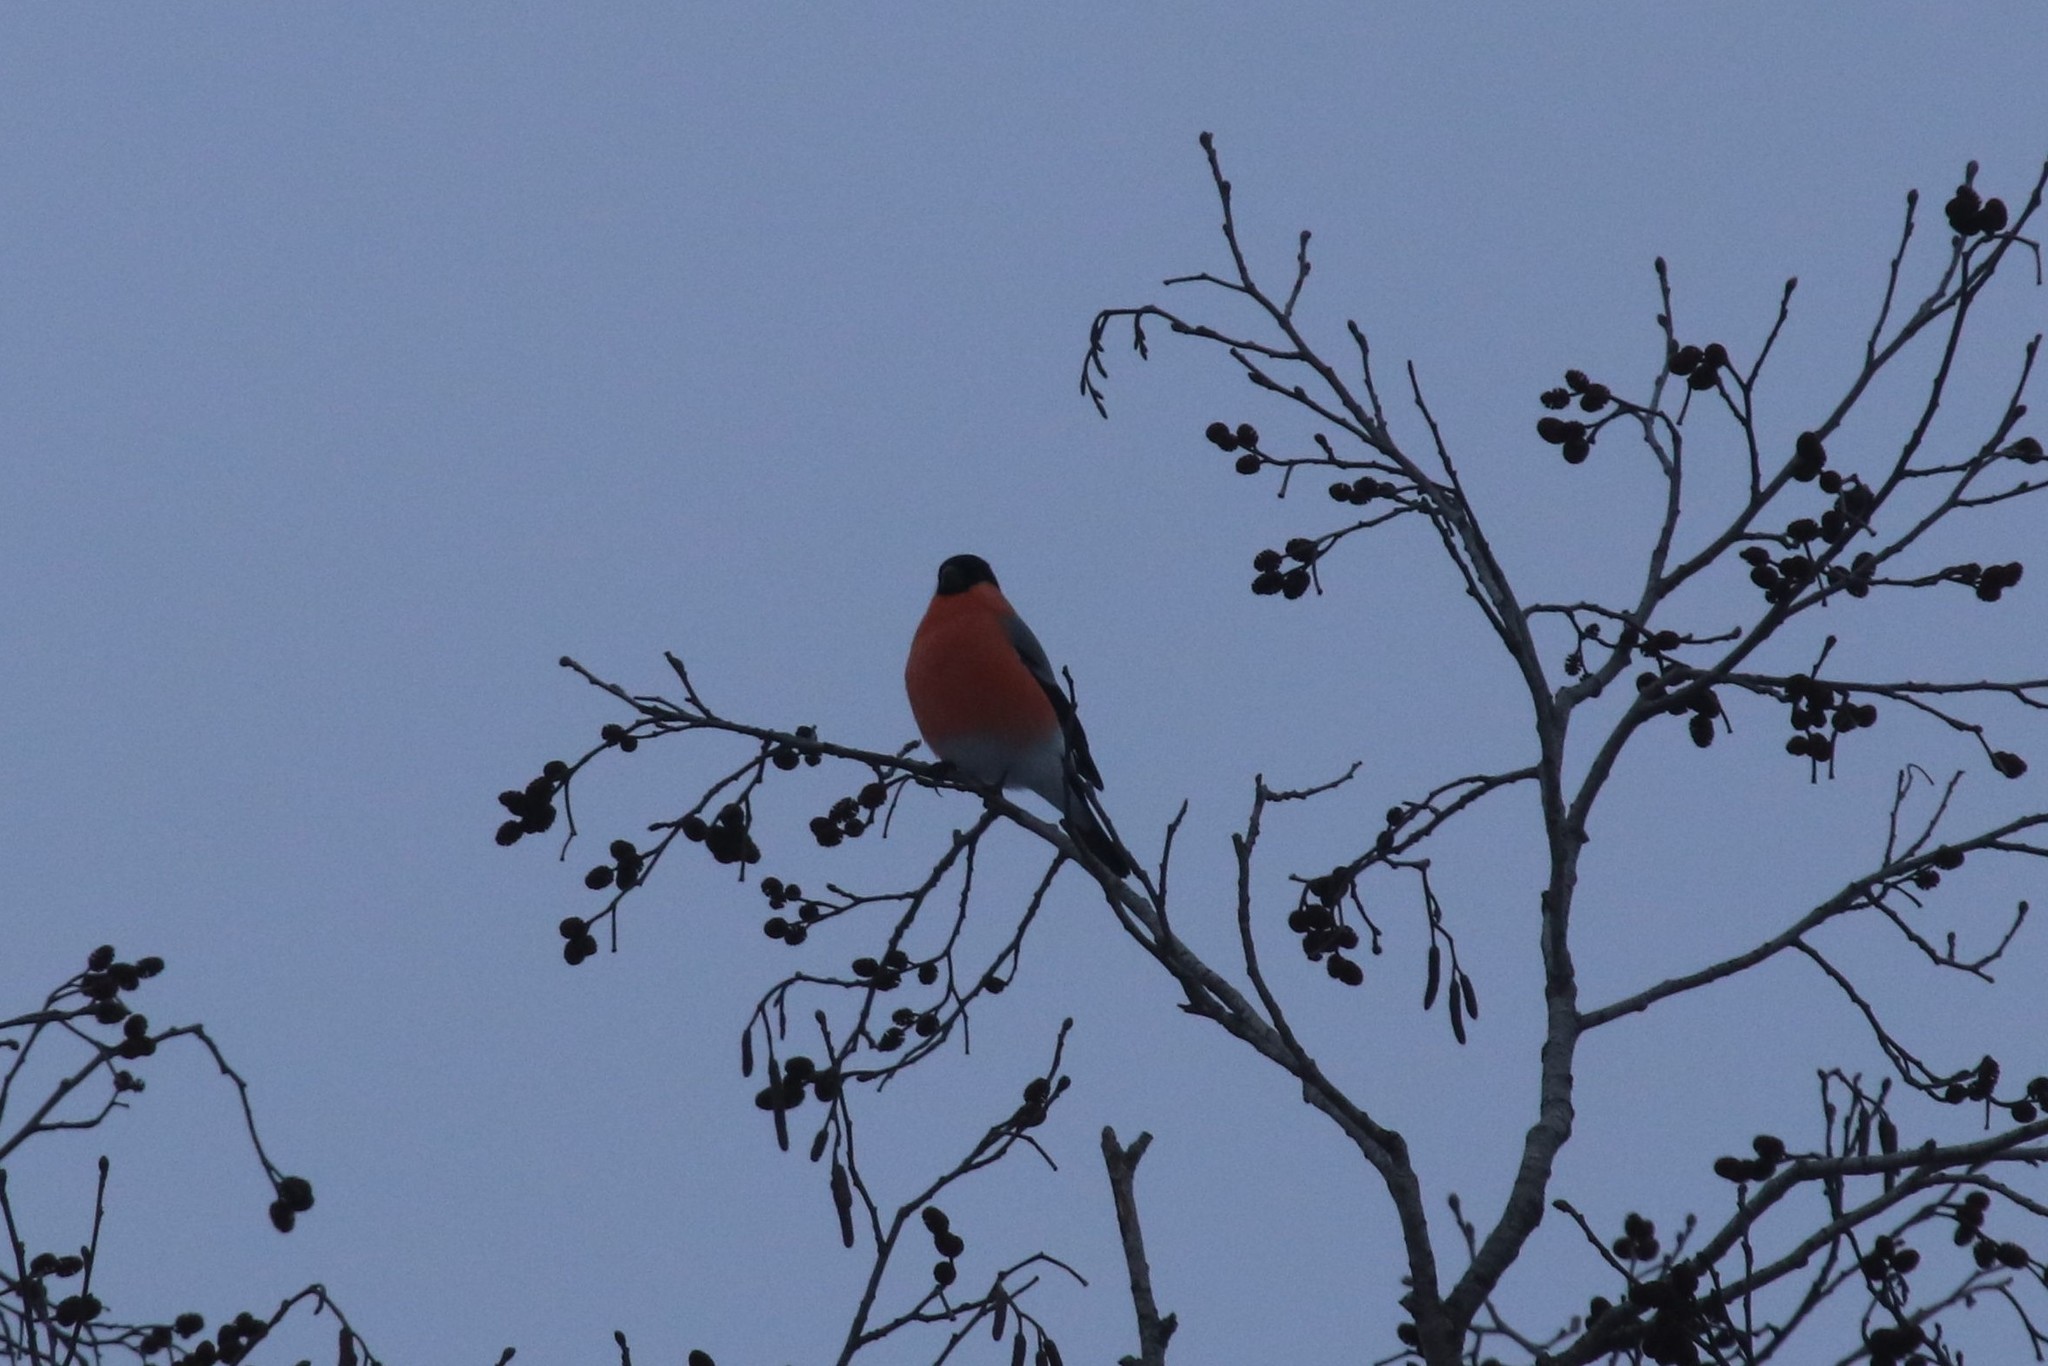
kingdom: Animalia
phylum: Chordata
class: Aves
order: Passeriformes
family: Fringillidae
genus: Pyrrhula
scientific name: Pyrrhula pyrrhula
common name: Eurasian bullfinch
